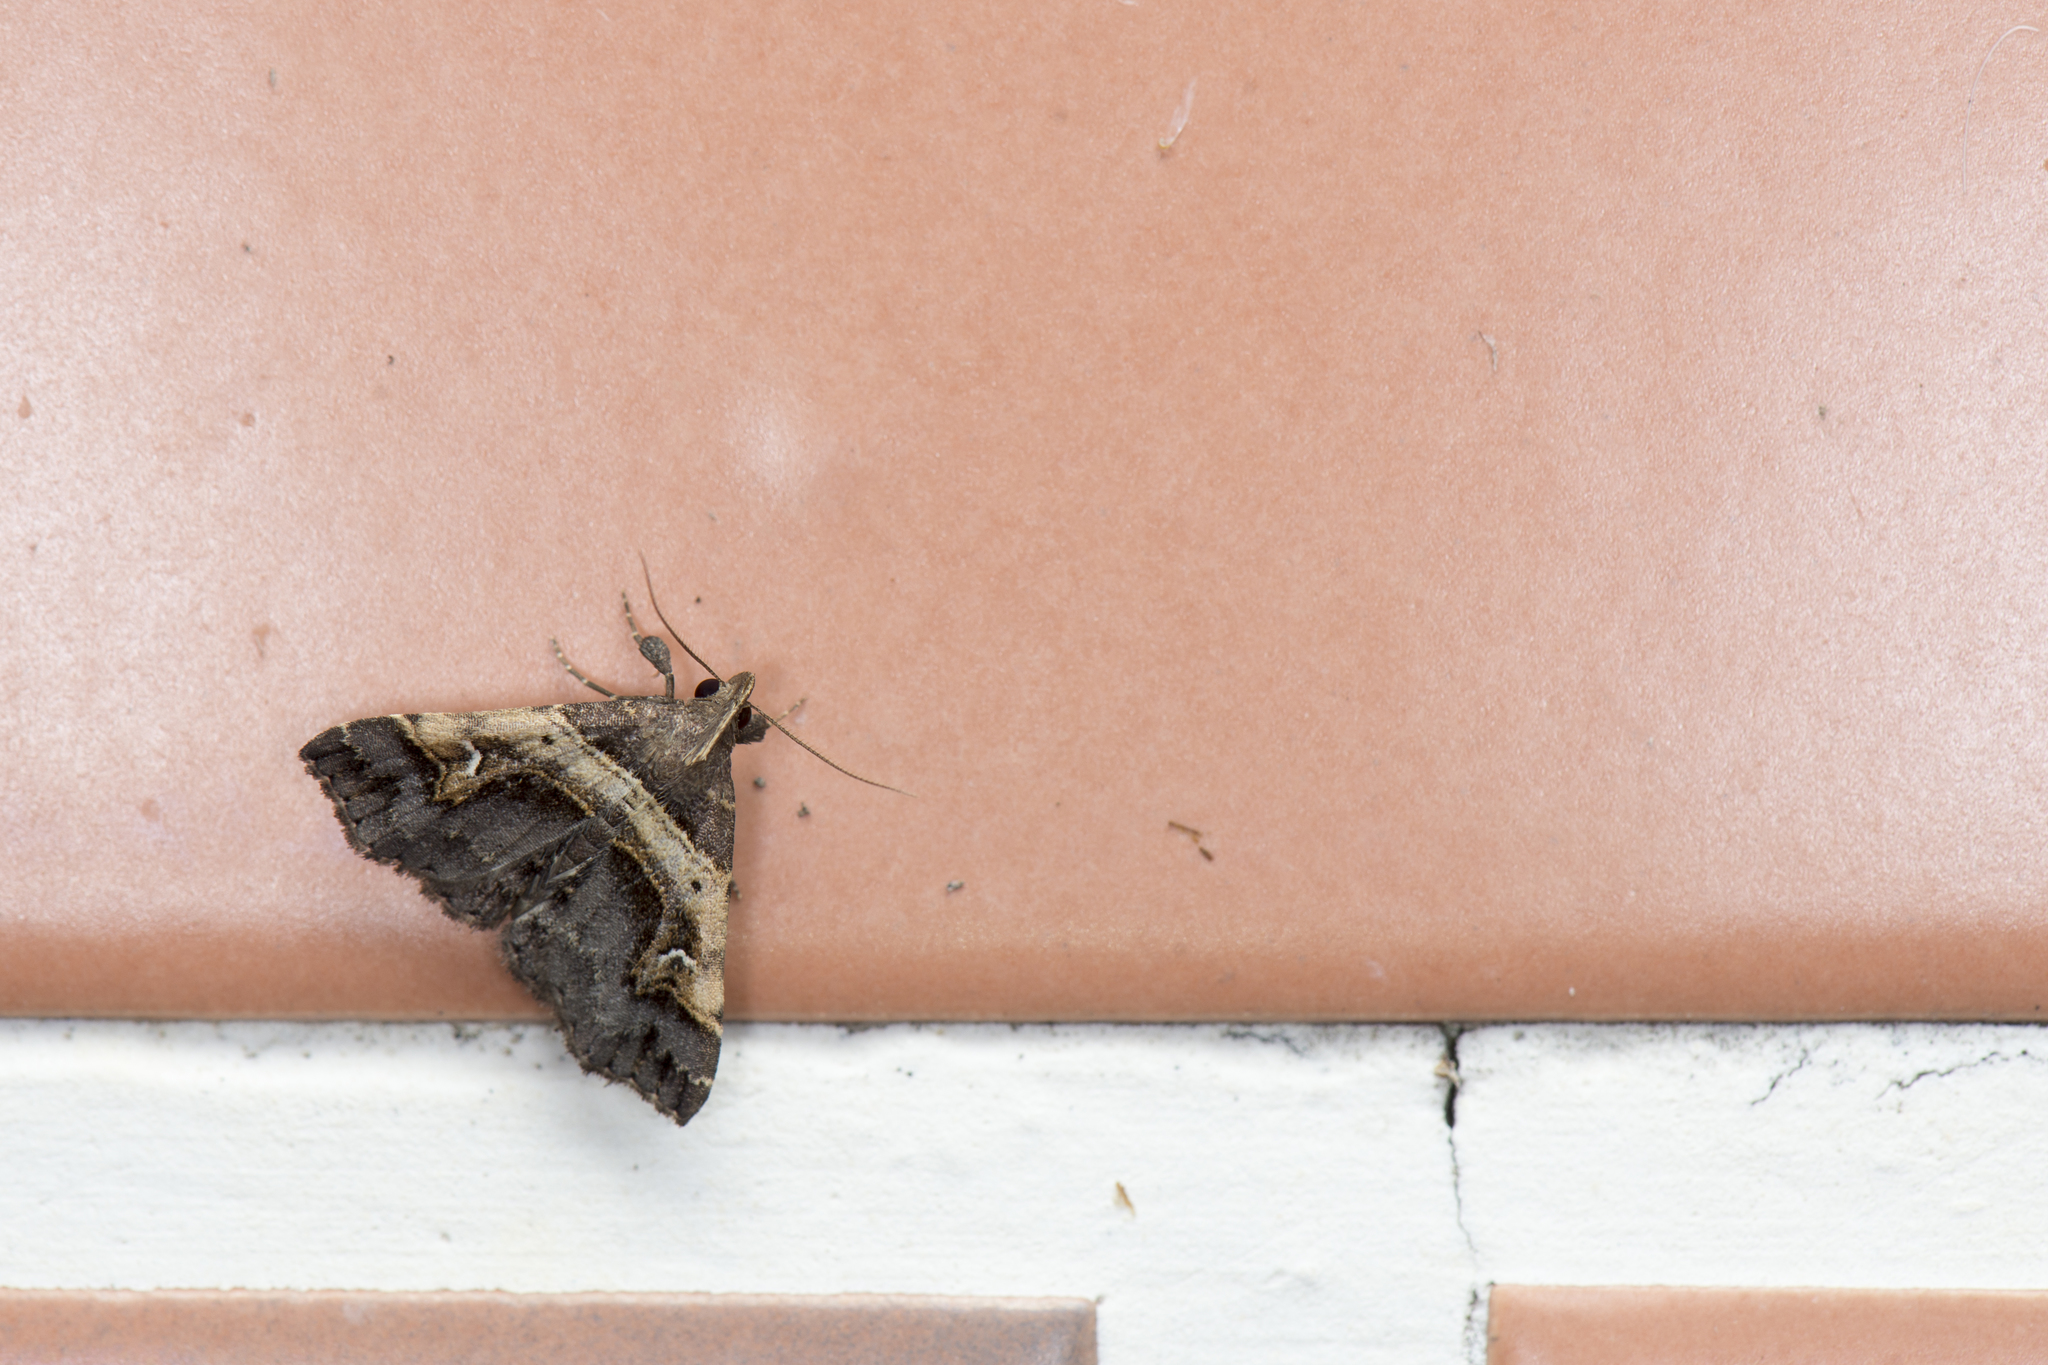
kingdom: Animalia
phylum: Arthropoda
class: Insecta
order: Lepidoptera
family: Erebidae
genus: Bertula
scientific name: Bertula abjudicalis
